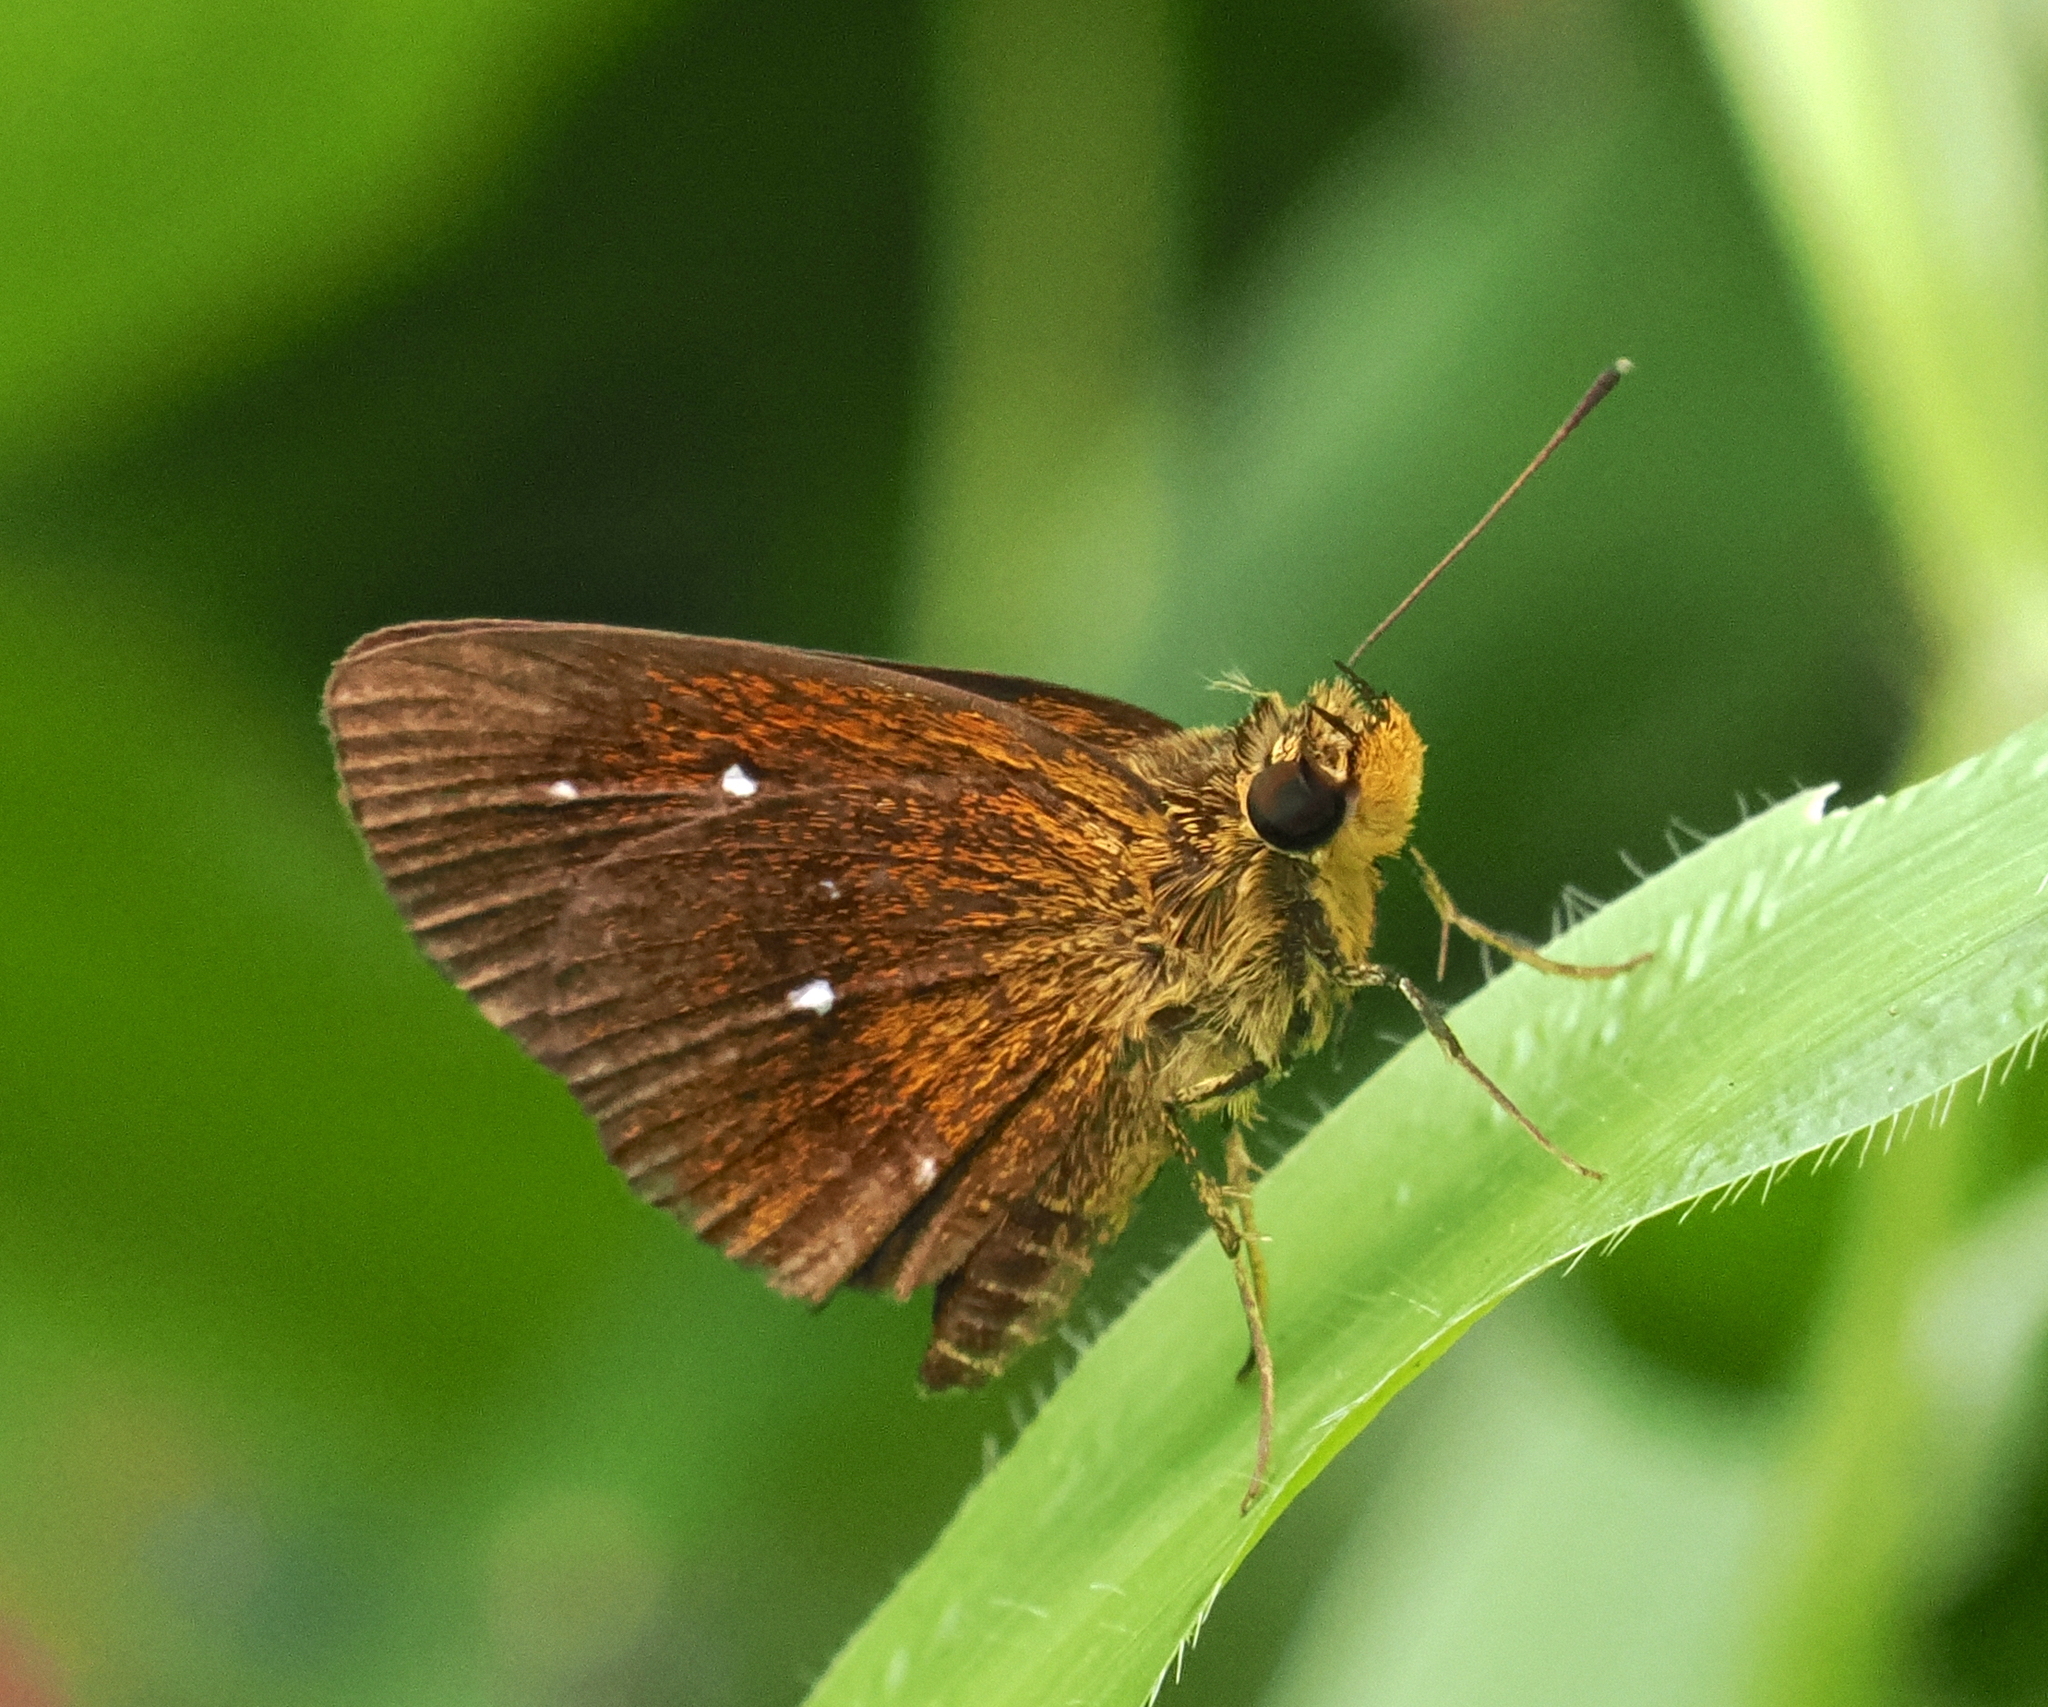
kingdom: Animalia
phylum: Arthropoda
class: Insecta
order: Lepidoptera
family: Hesperiidae
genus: Iambrix
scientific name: Iambrix salsala
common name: Chestnut bob
